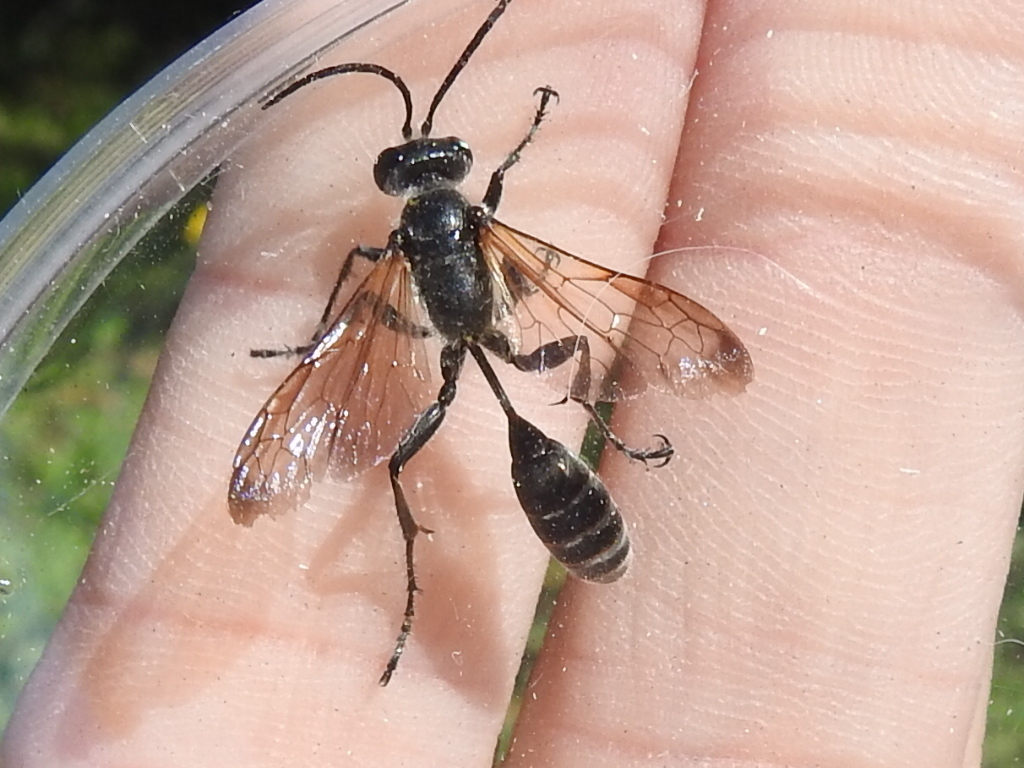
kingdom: Animalia
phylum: Arthropoda
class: Insecta
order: Hymenoptera
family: Sphecidae
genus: Isodontia
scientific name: Isodontia mexicana
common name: Mud dauber
